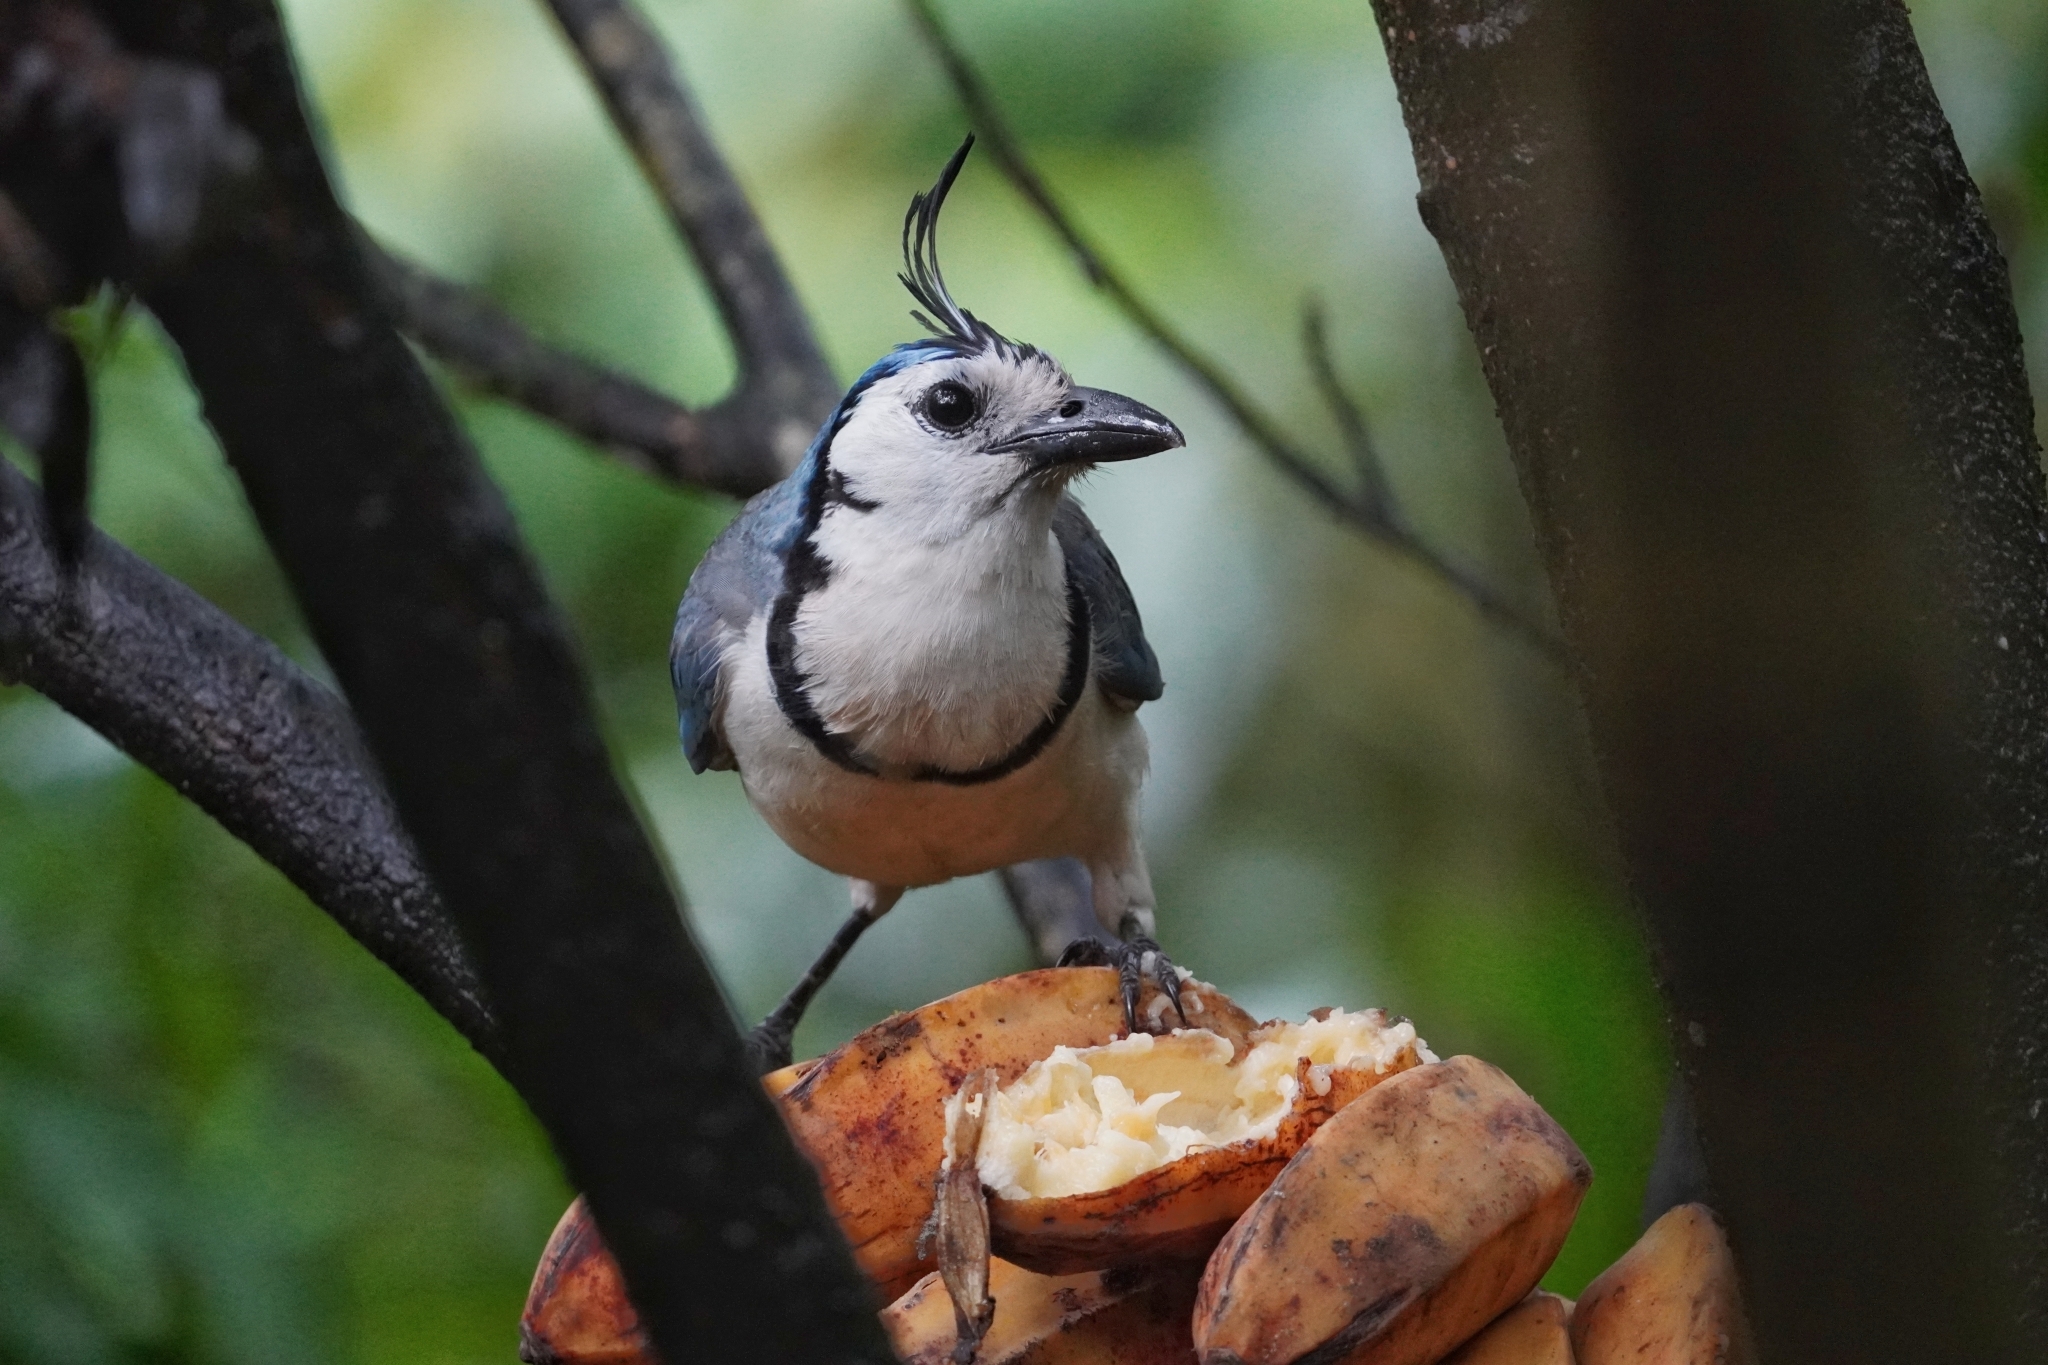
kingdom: Animalia
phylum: Chordata
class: Aves
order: Passeriformes
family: Corvidae
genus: Calocitta
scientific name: Calocitta formosa
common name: White-throated magpie-jay
